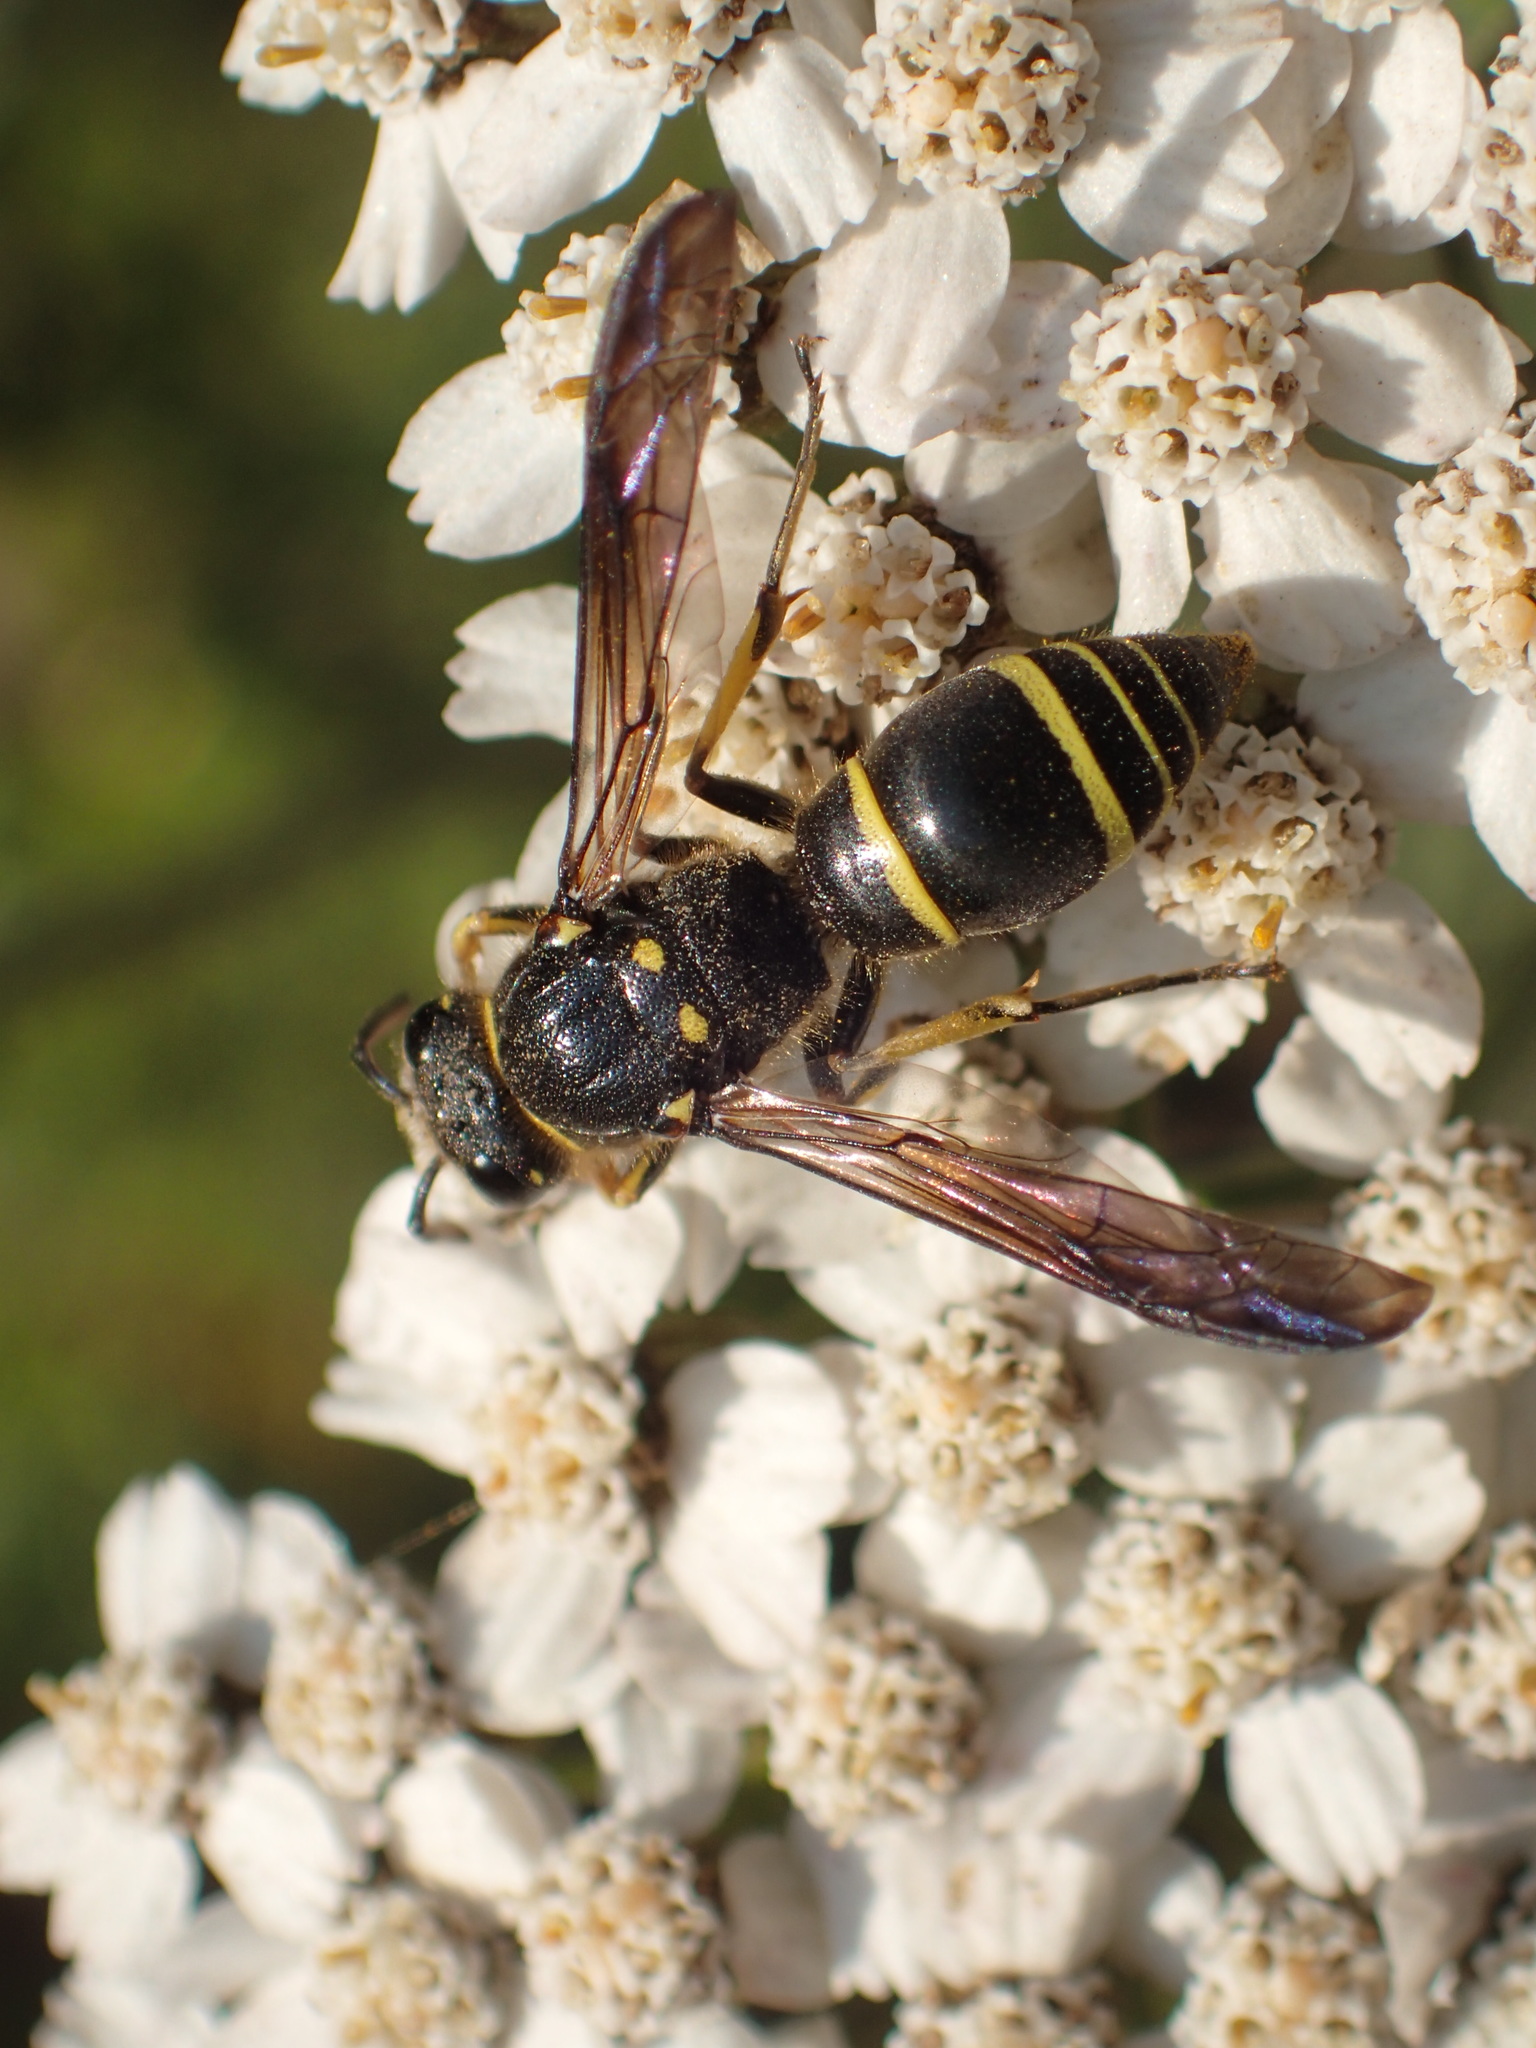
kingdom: Animalia
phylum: Arthropoda
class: Insecta
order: Hymenoptera
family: Vespidae
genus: Ancistrocerus
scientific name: Ancistrocerus
